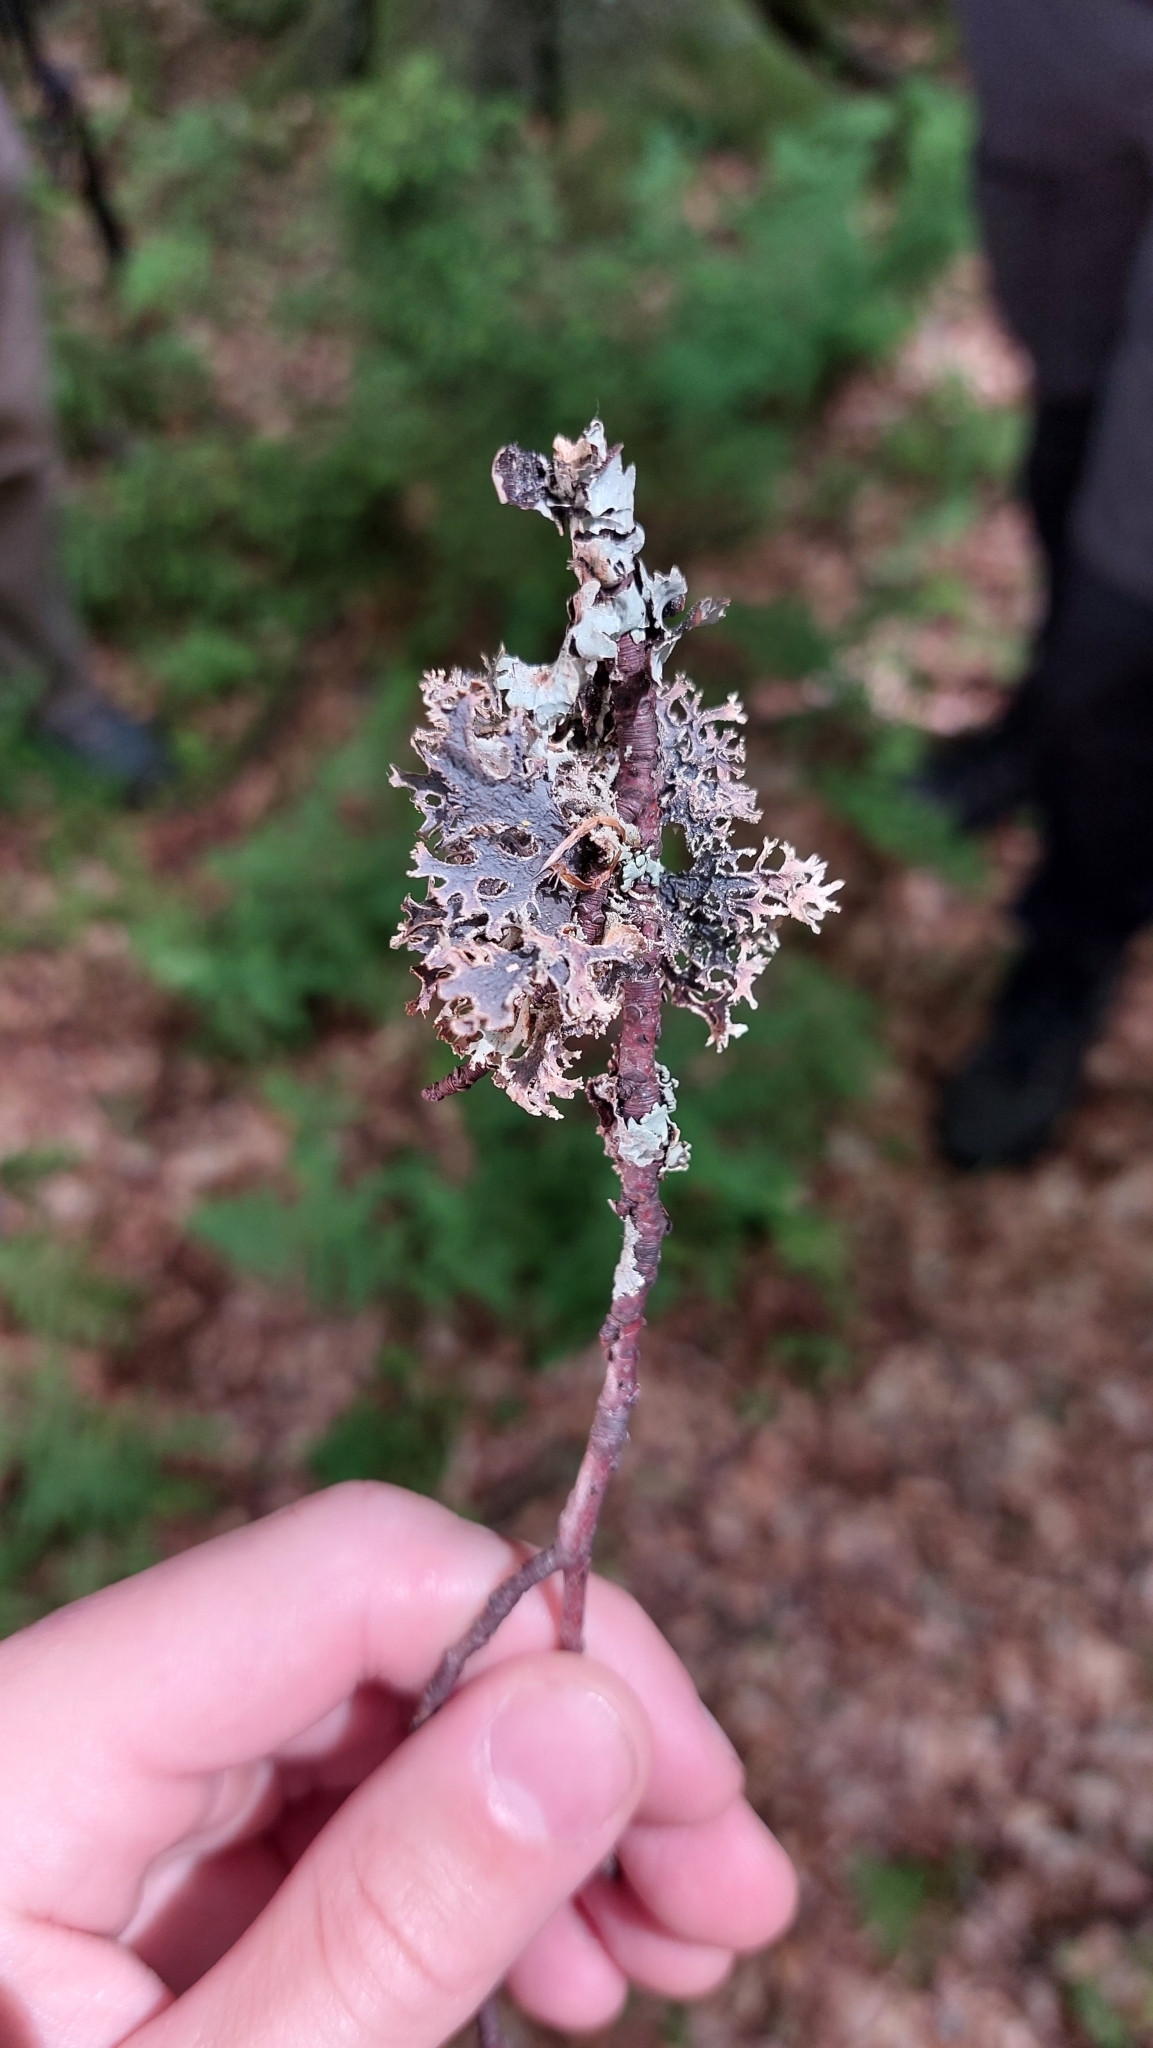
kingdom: Fungi
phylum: Ascomycota
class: Lecanoromycetes
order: Lecanorales
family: Parmeliaceae
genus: Pseudevernia
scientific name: Pseudevernia furfuracea
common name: Tree moss
